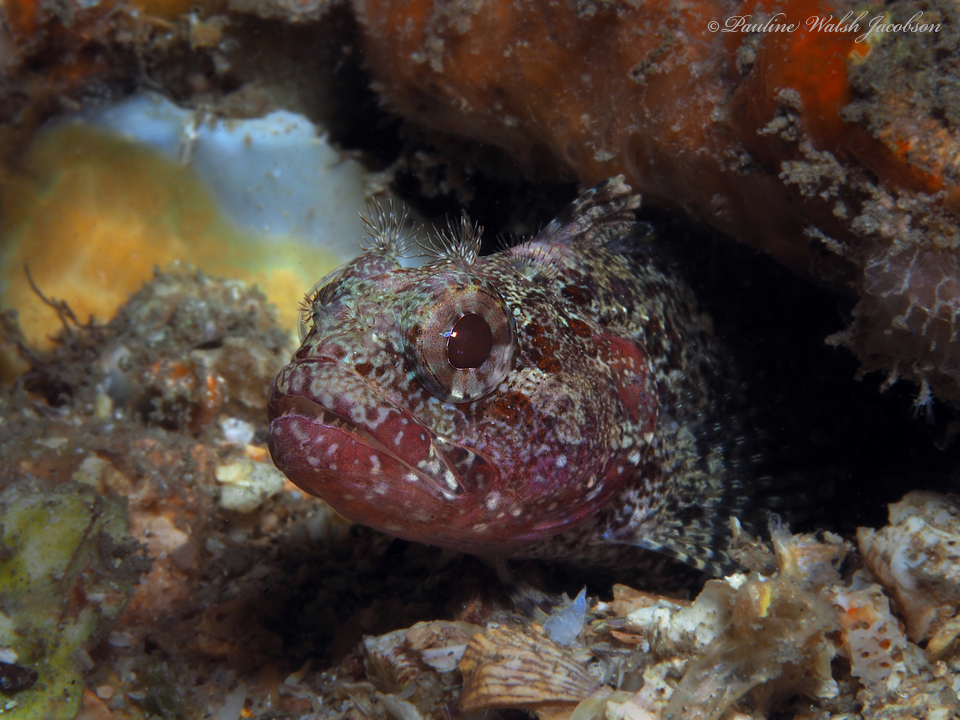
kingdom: Animalia
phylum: Chordata
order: Perciformes
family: Labrisomidae
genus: Gobioclinus
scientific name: Gobioclinus kalisherae
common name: Downy blenny
